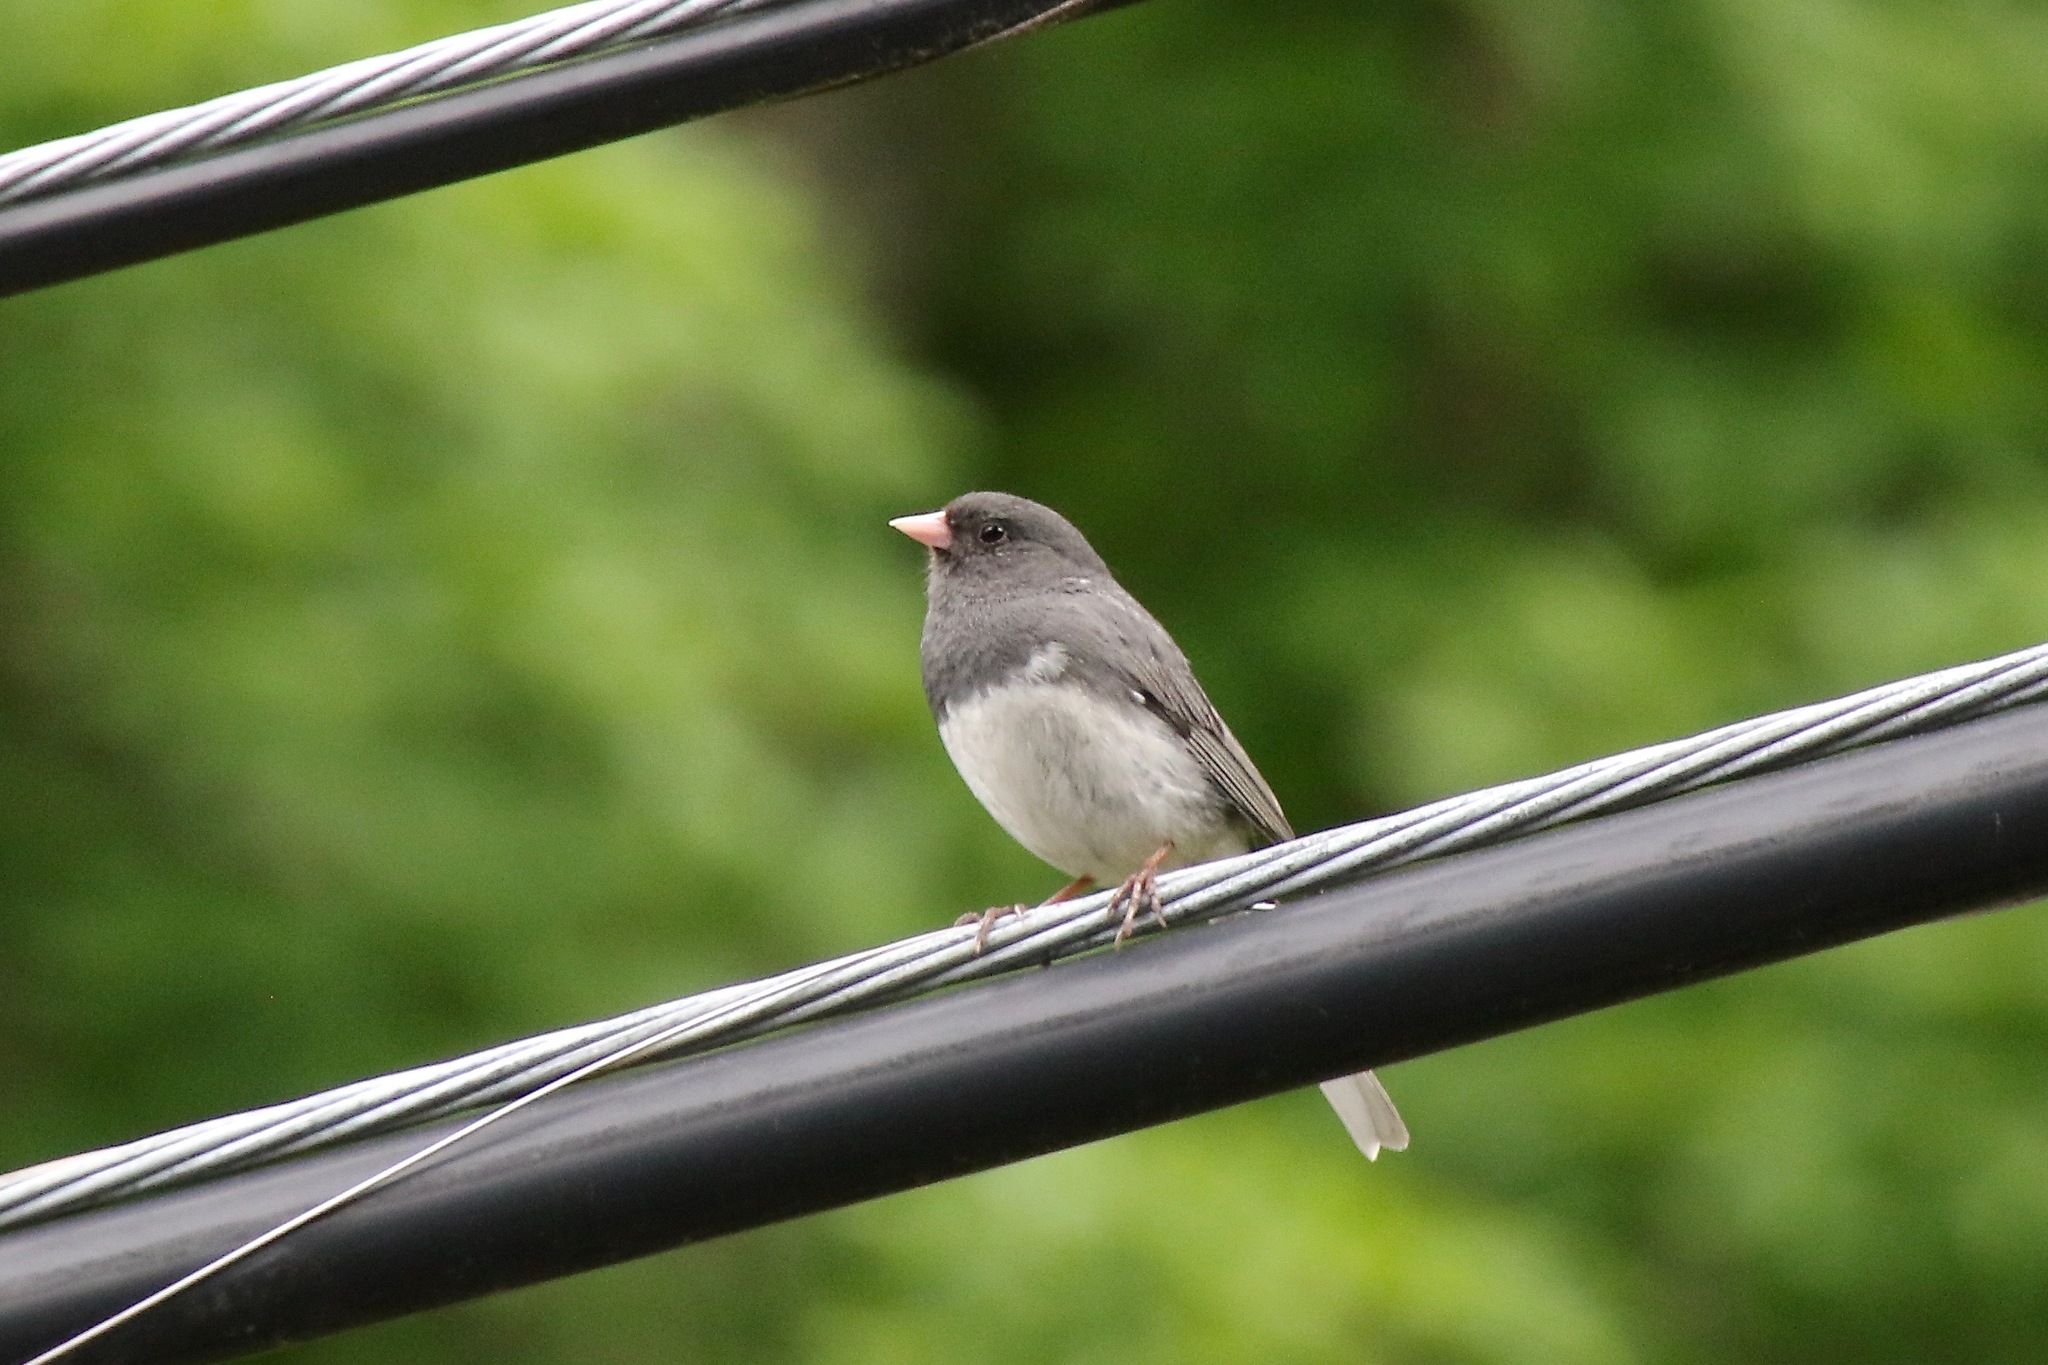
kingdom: Animalia
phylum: Chordata
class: Aves
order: Passeriformes
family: Passerellidae
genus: Junco
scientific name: Junco hyemalis
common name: Dark-eyed junco
